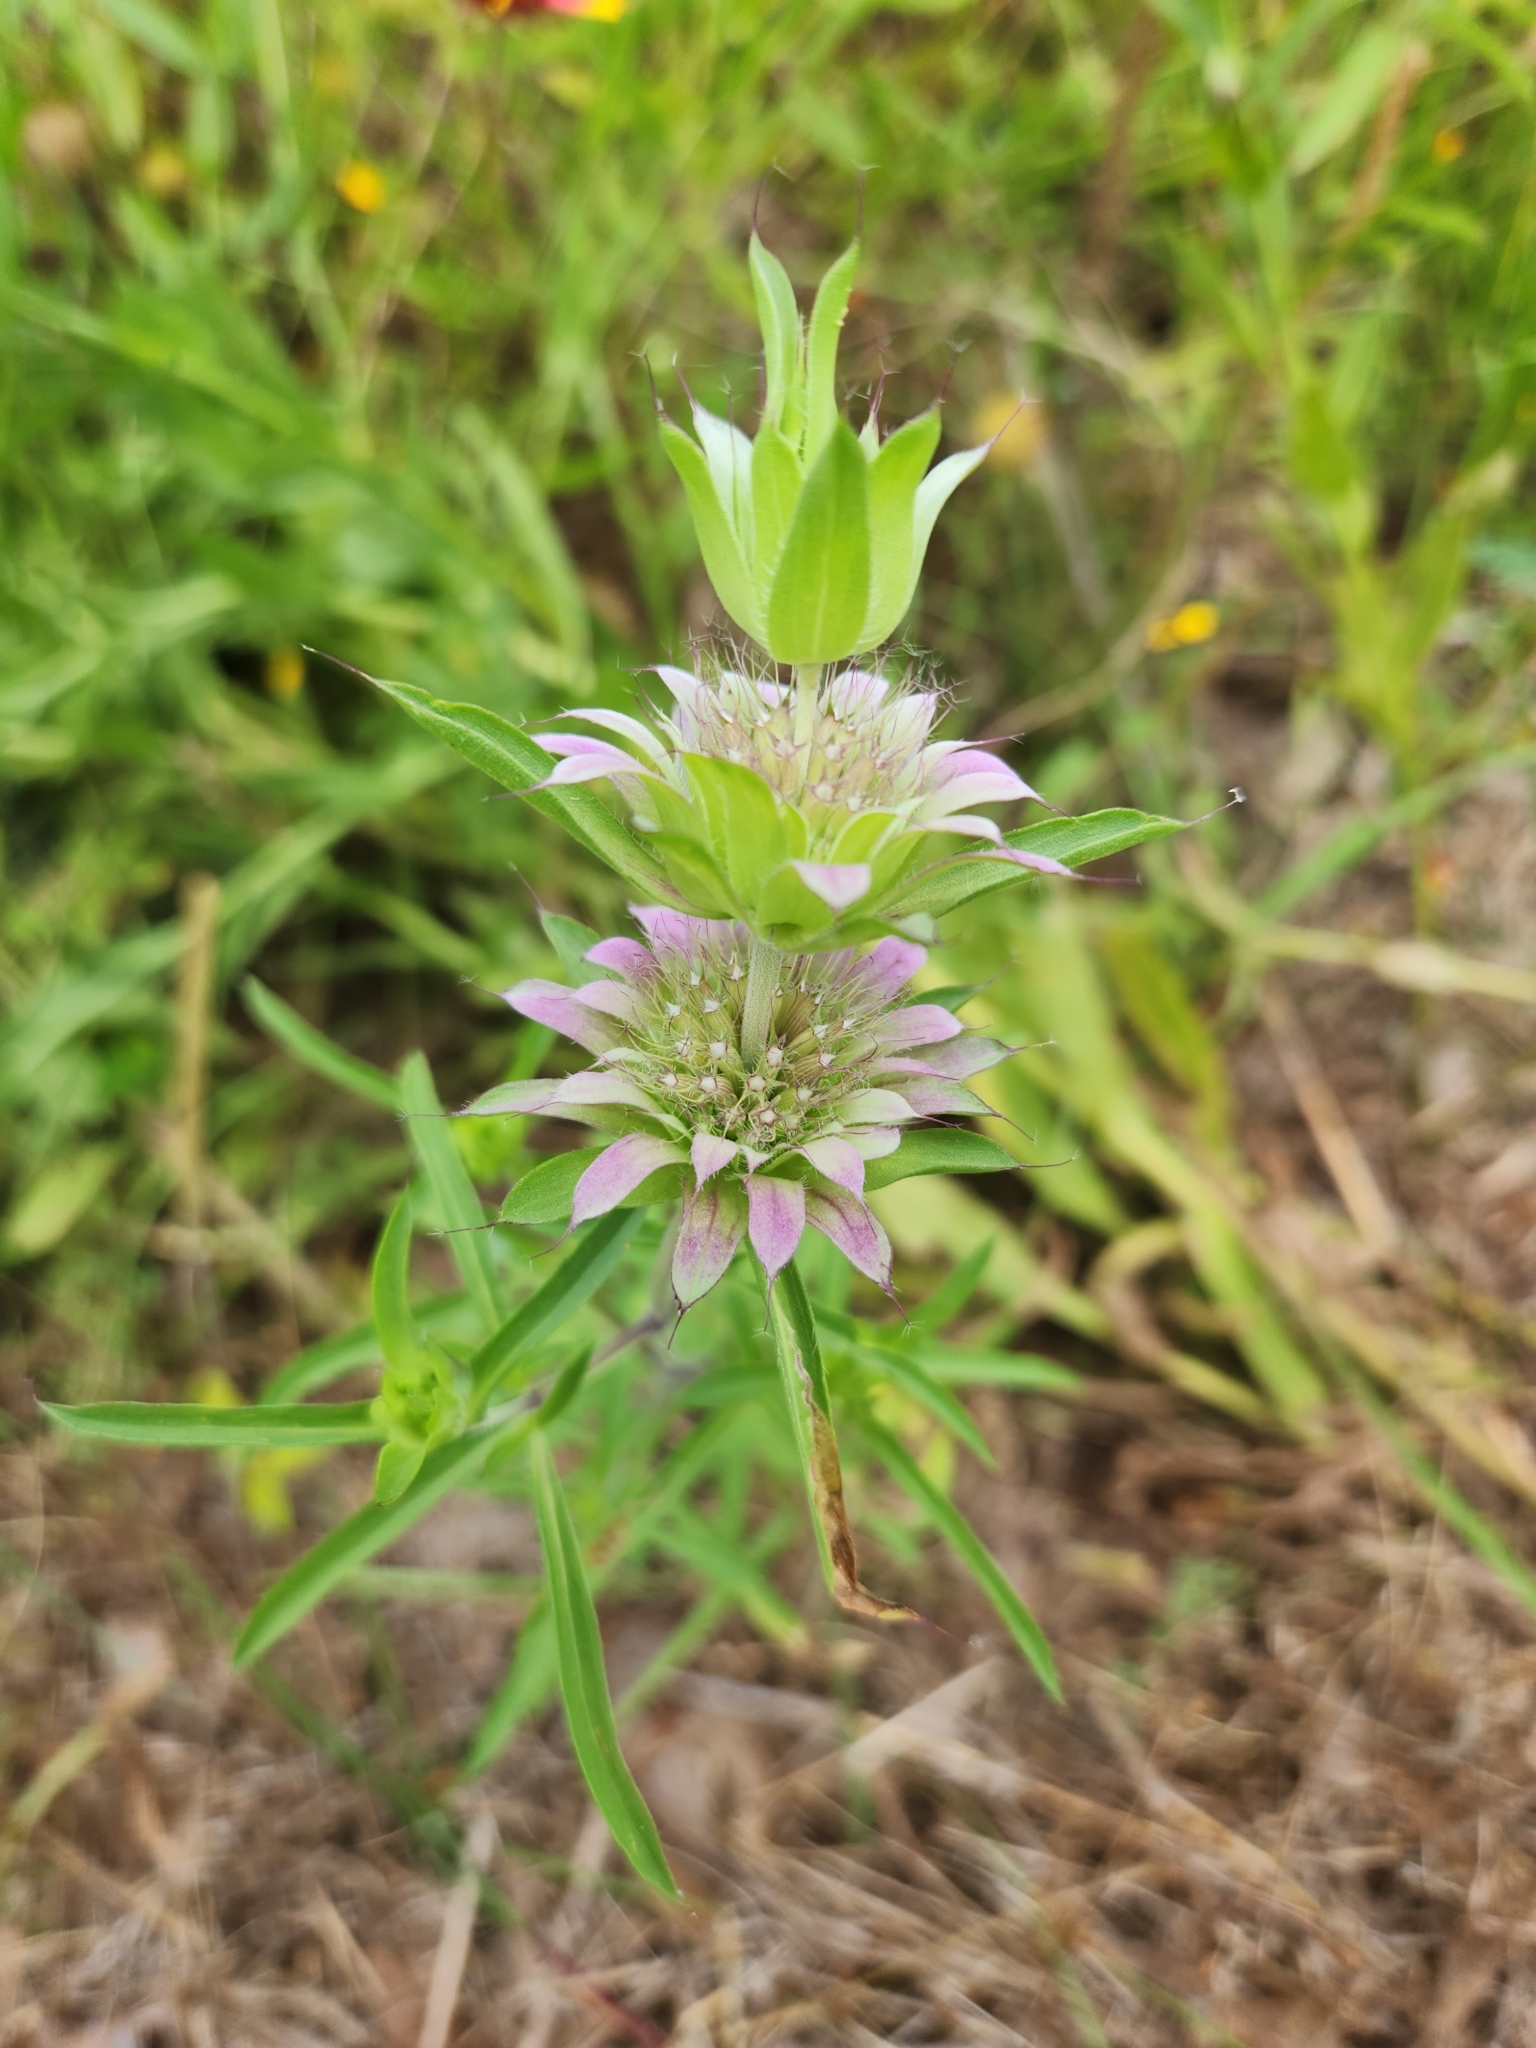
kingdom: Plantae
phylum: Tracheophyta
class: Magnoliopsida
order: Lamiales
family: Lamiaceae
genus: Monarda
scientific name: Monarda citriodora
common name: Lemon beebalm
